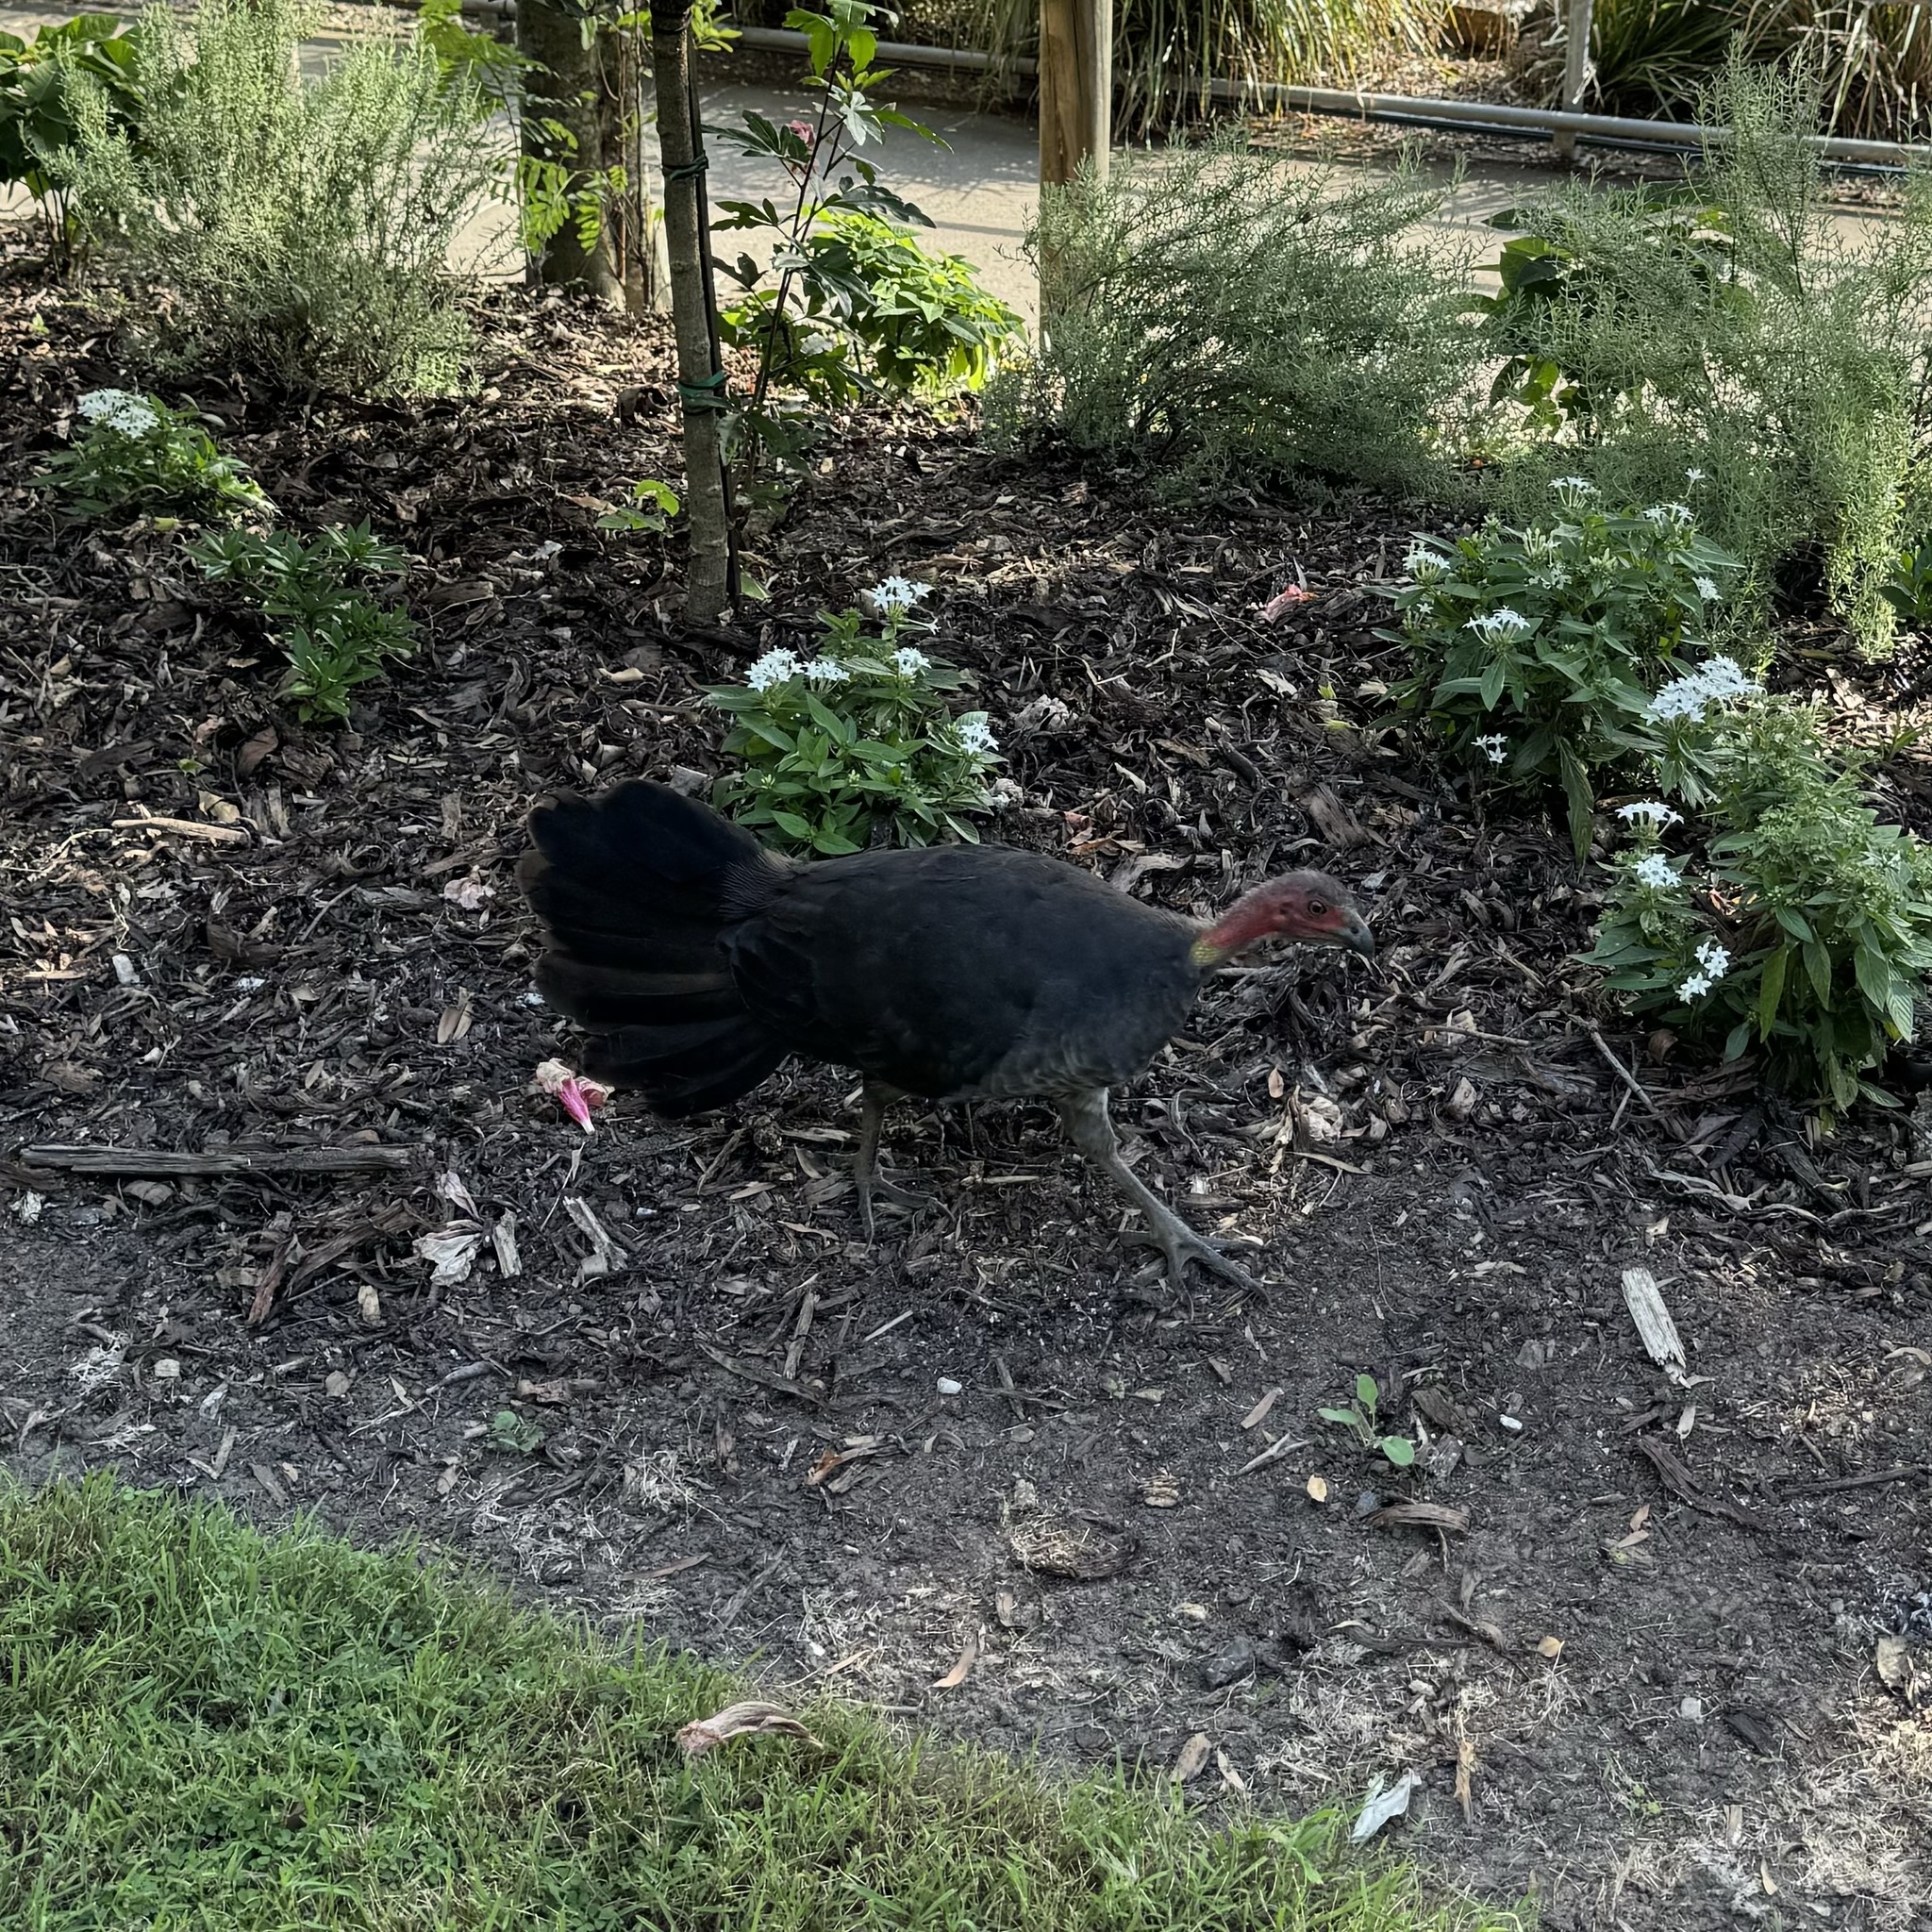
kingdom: Animalia
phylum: Chordata
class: Aves
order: Galliformes
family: Megapodiidae
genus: Alectura
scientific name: Alectura lathami
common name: Australian brushturkey
